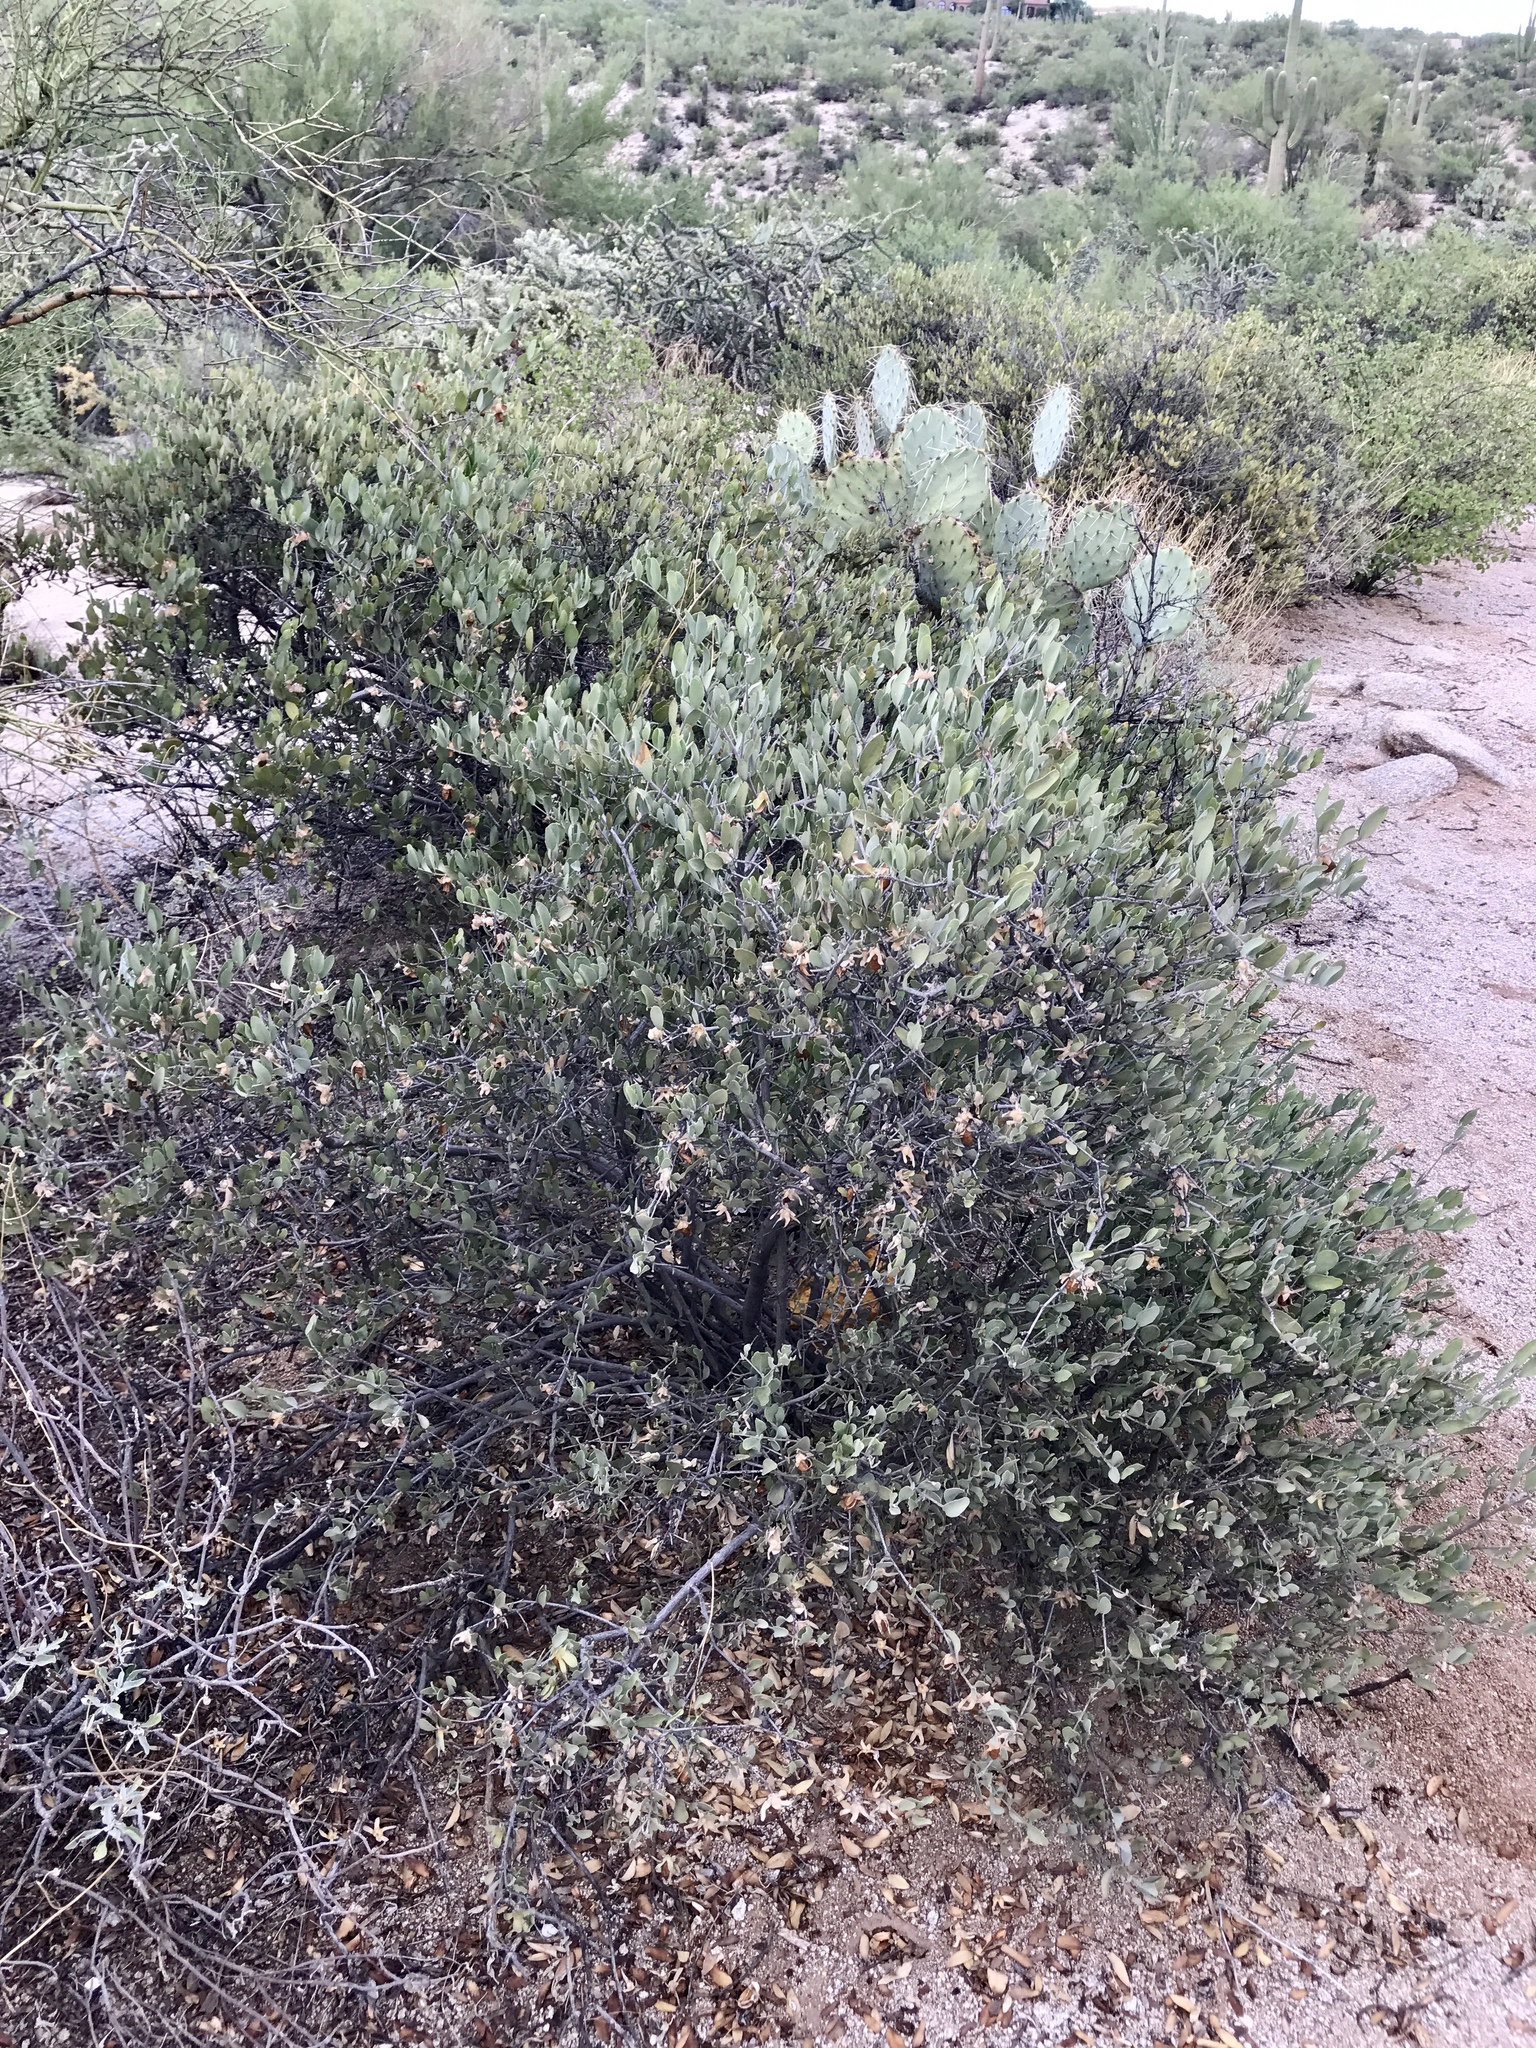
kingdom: Plantae
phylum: Tracheophyta
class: Magnoliopsida
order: Caryophyllales
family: Simmondsiaceae
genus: Simmondsia
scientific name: Simmondsia chinensis
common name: Jojoba
